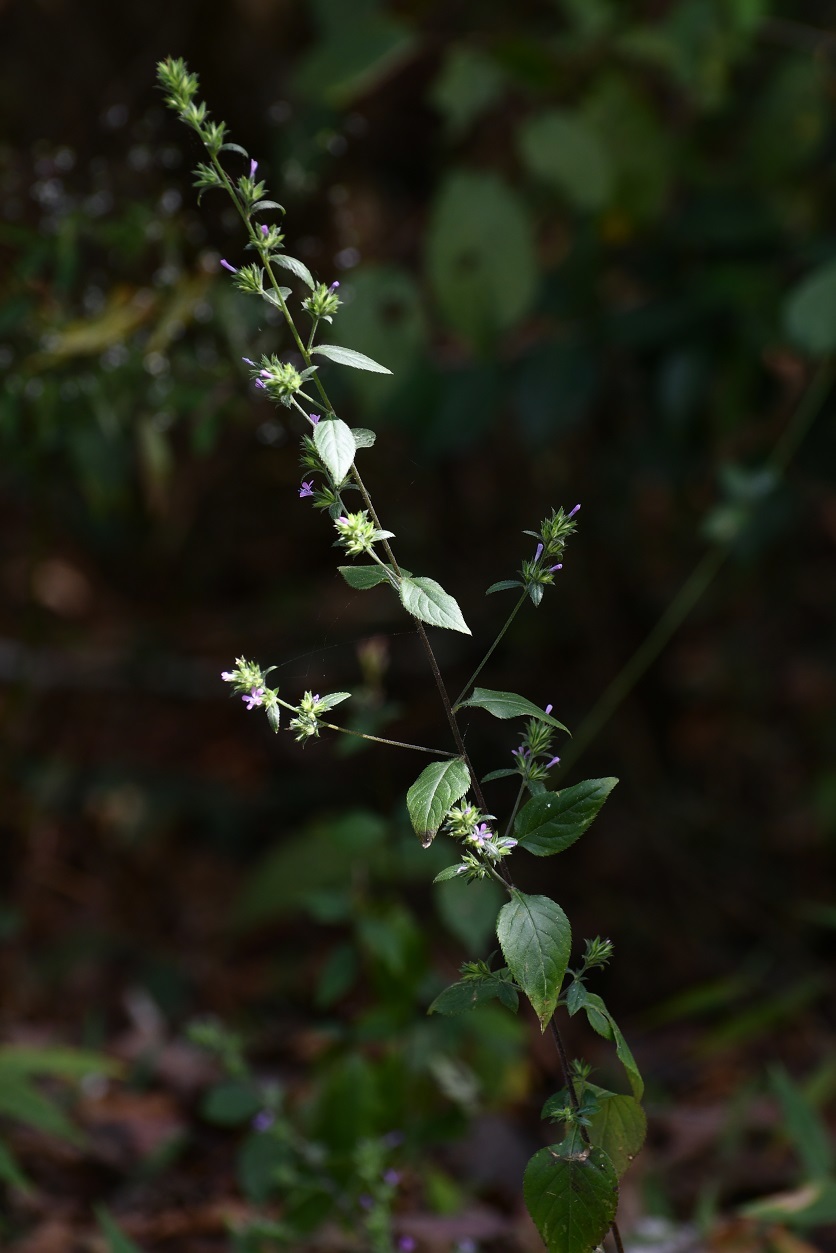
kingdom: Plantae
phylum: Tracheophyta
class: Magnoliopsida
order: Ericales
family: Polemoniaceae
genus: Loeselia
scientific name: Loeselia glandulosa
